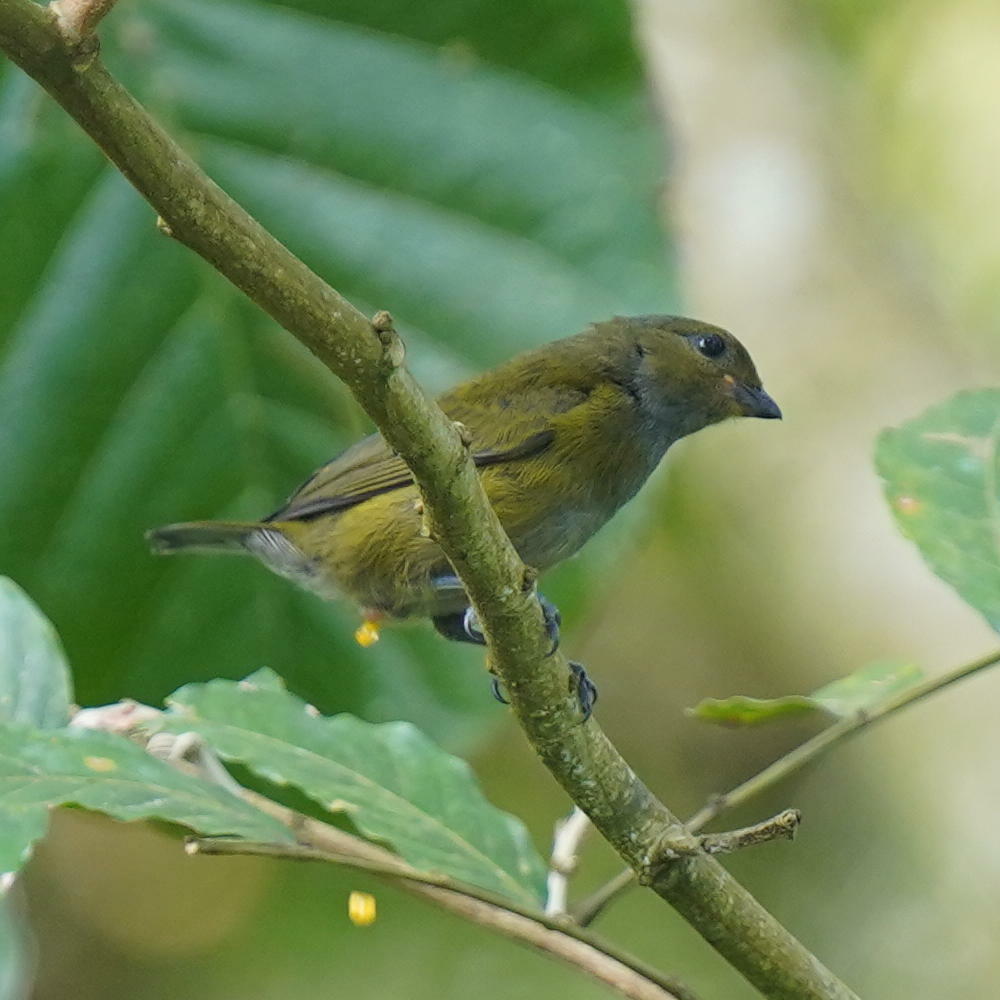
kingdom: Animalia
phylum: Chordata
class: Aves
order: Passeriformes
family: Fringillidae
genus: Euphonia
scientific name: Euphonia anneae
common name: Tawny-capped euphonia
